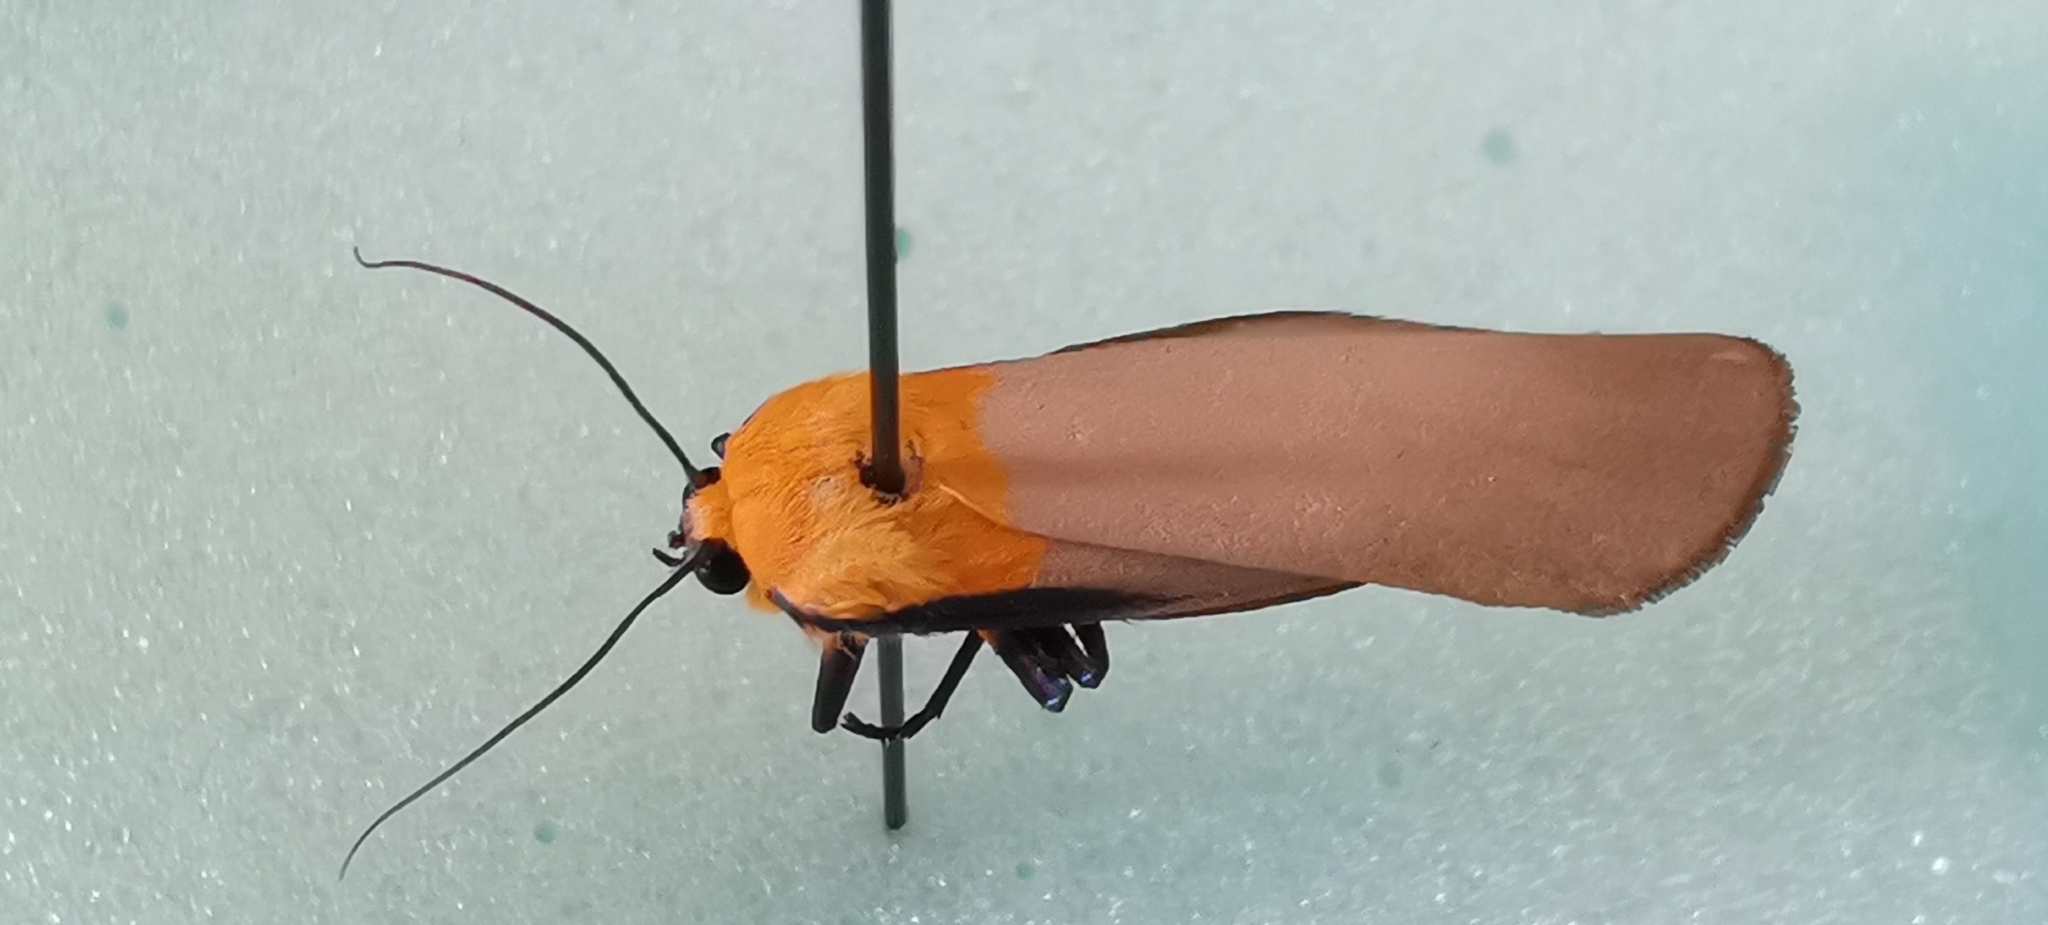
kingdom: Animalia
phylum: Arthropoda
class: Insecta
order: Lepidoptera
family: Erebidae
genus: Lithosia
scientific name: Lithosia quadra
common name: Four-spotted footman
